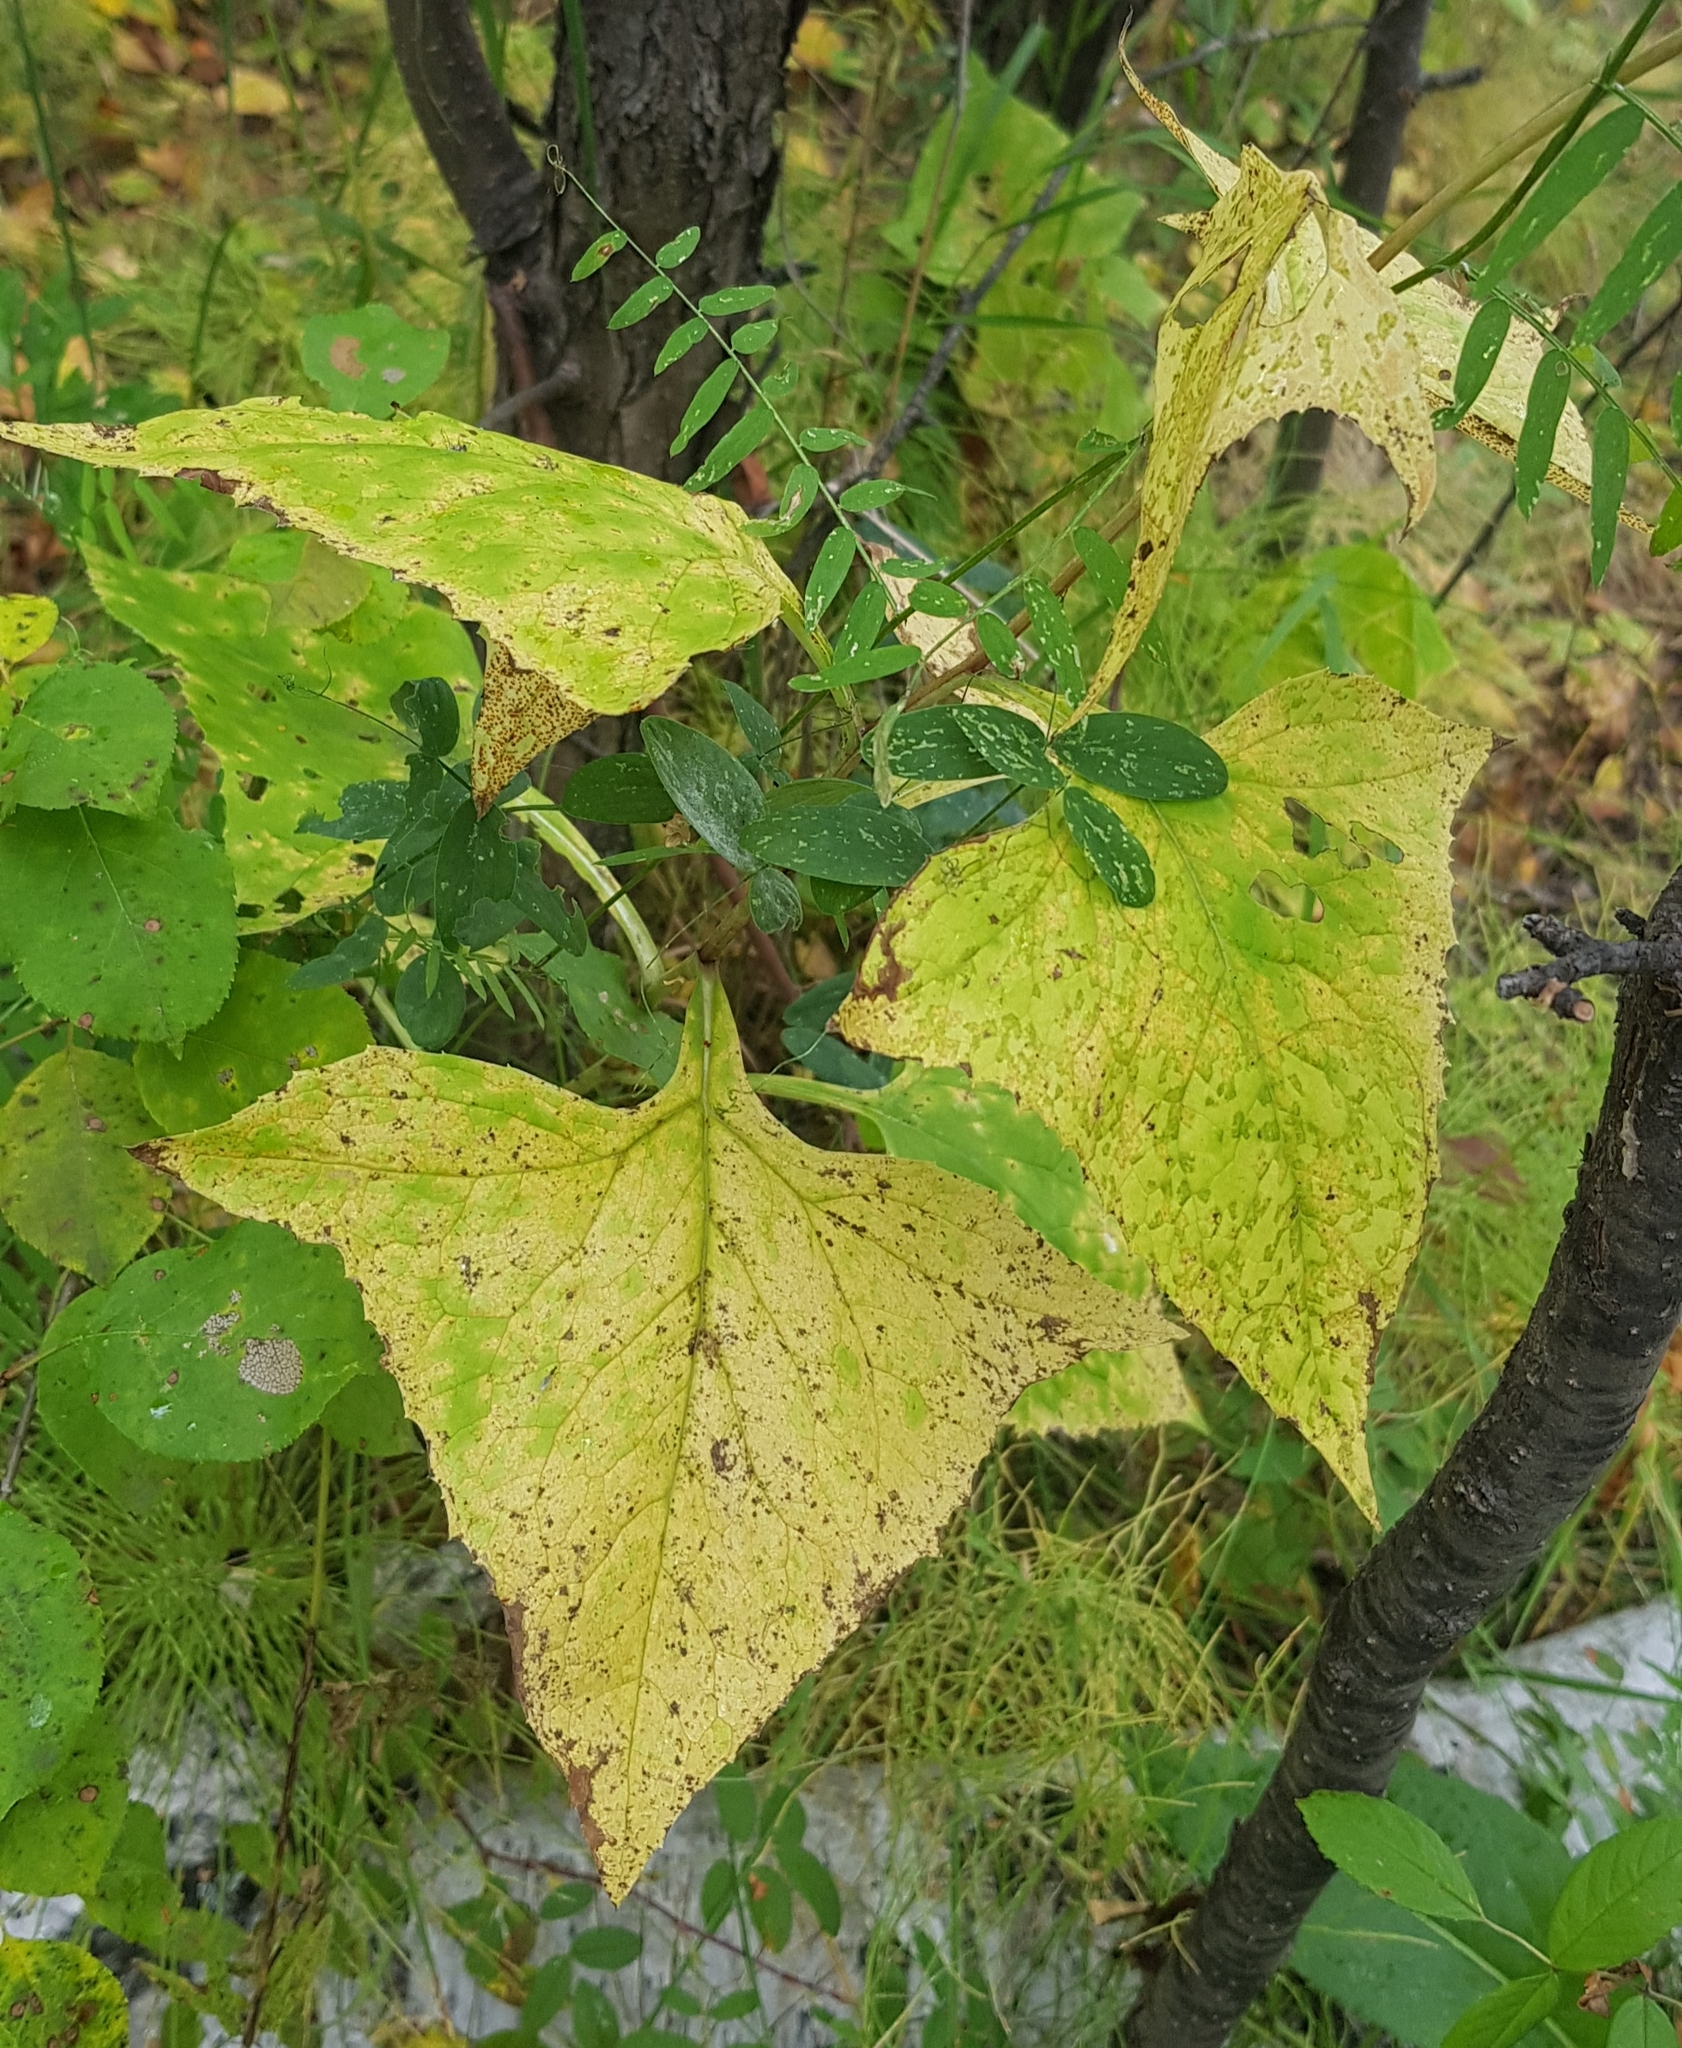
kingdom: Plantae
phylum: Tracheophyta
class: Magnoliopsida
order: Asterales
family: Asteraceae
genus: Parasenecio
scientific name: Parasenecio hastatus
